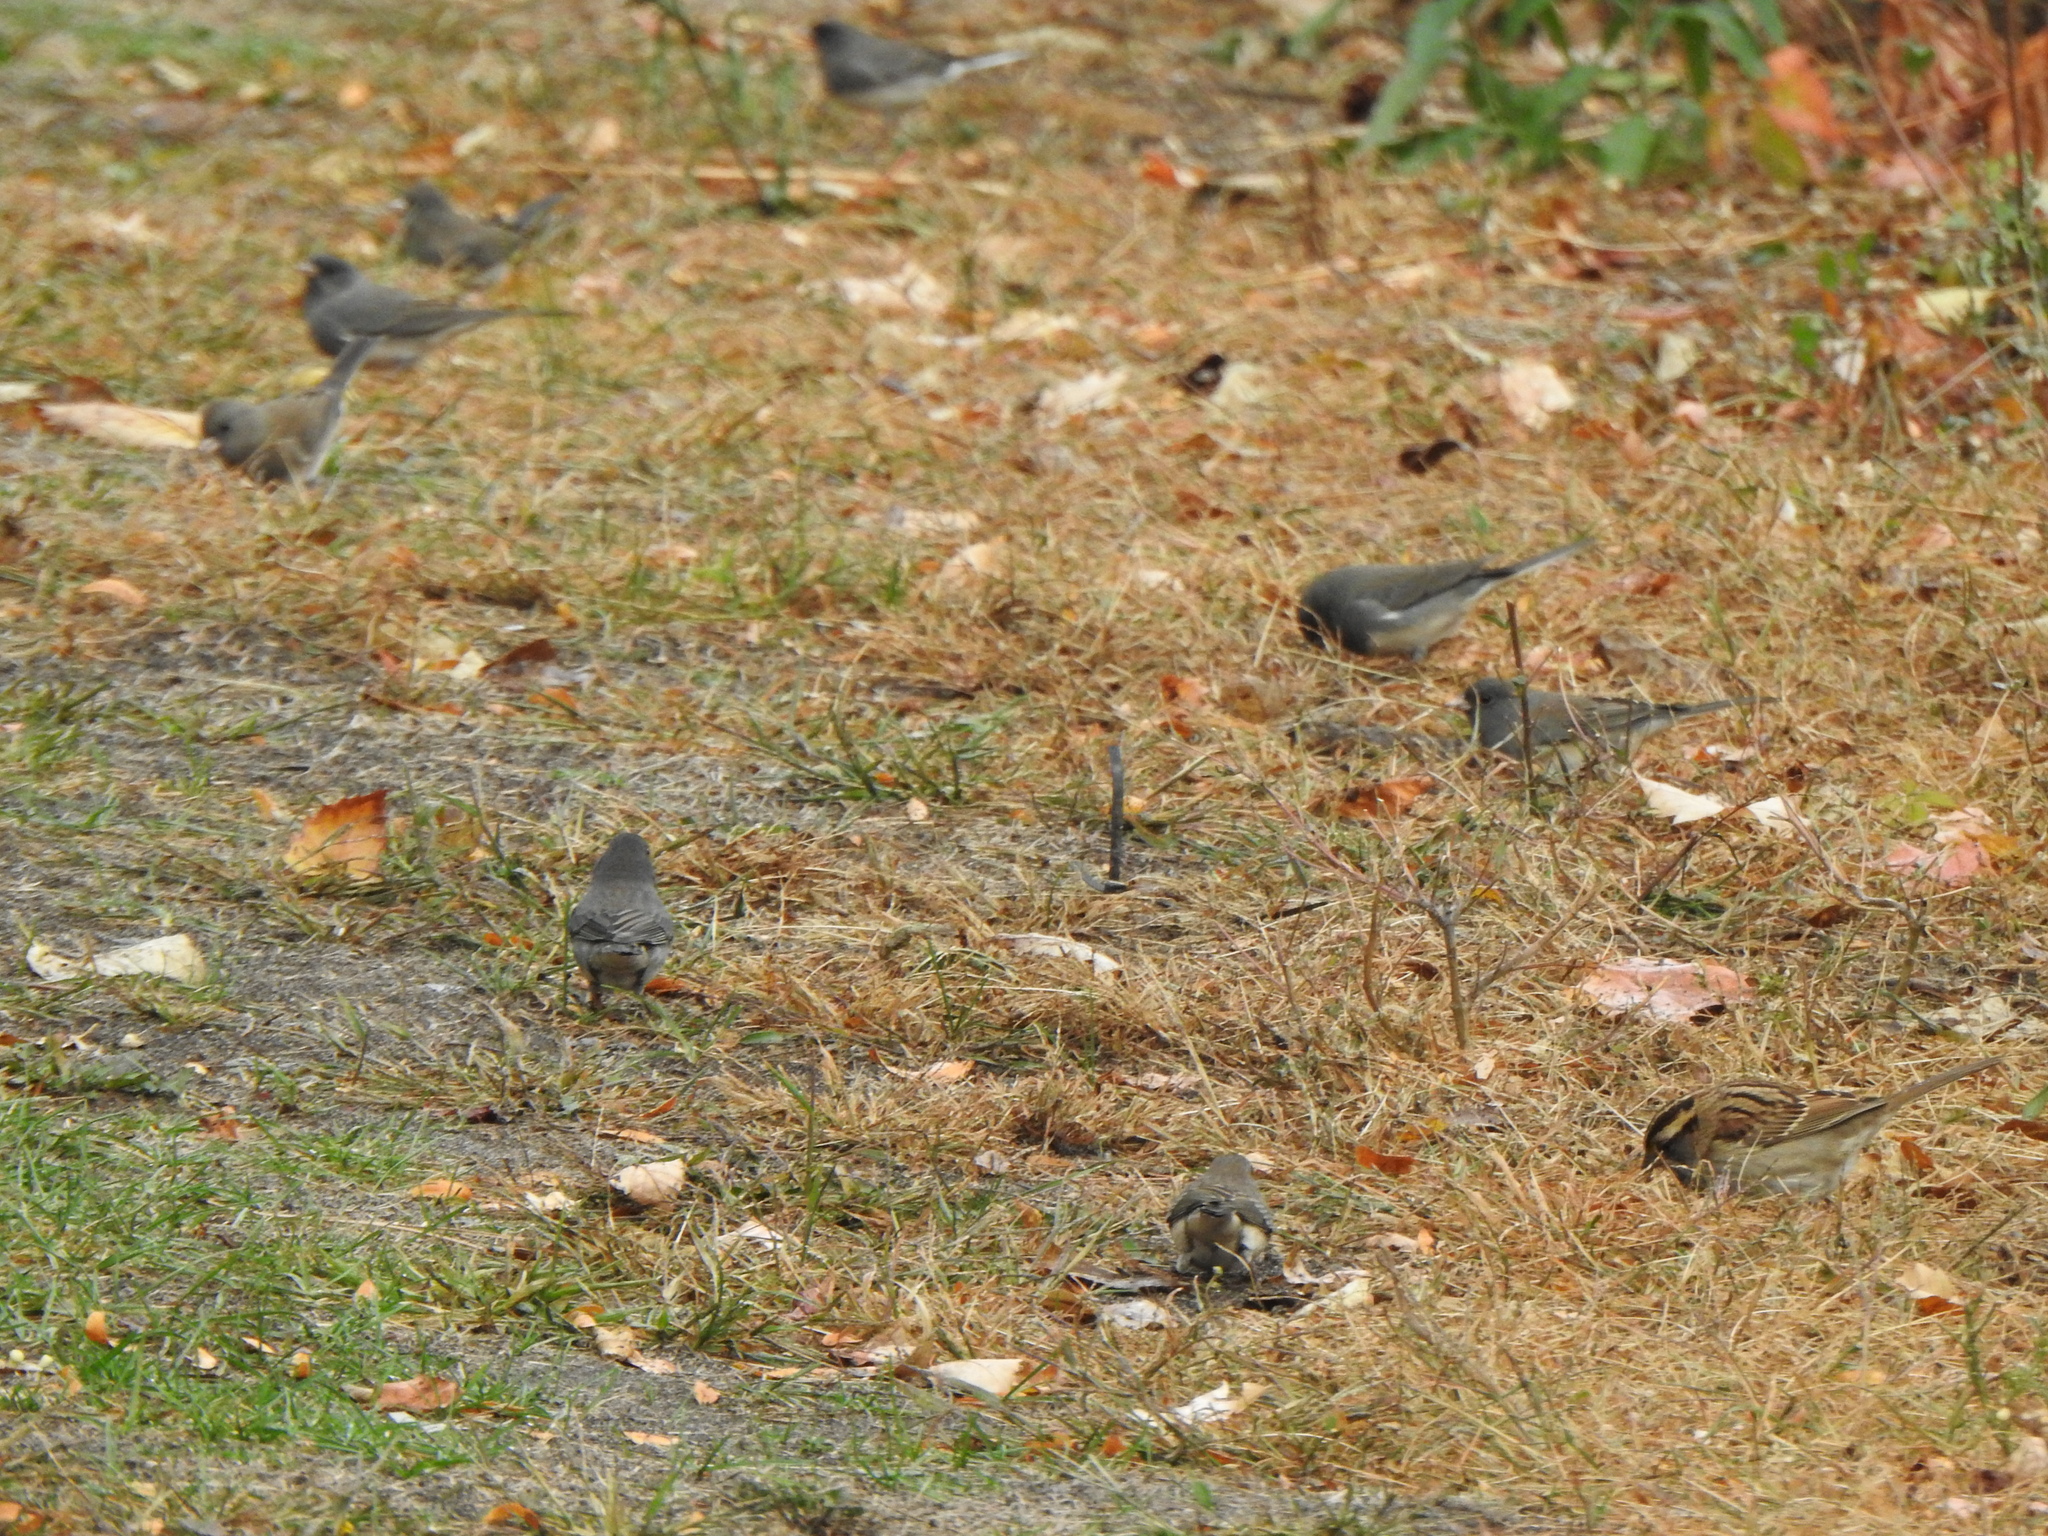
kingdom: Animalia
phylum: Chordata
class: Aves
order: Passeriformes
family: Passerellidae
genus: Junco
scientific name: Junco hyemalis
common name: Dark-eyed junco
